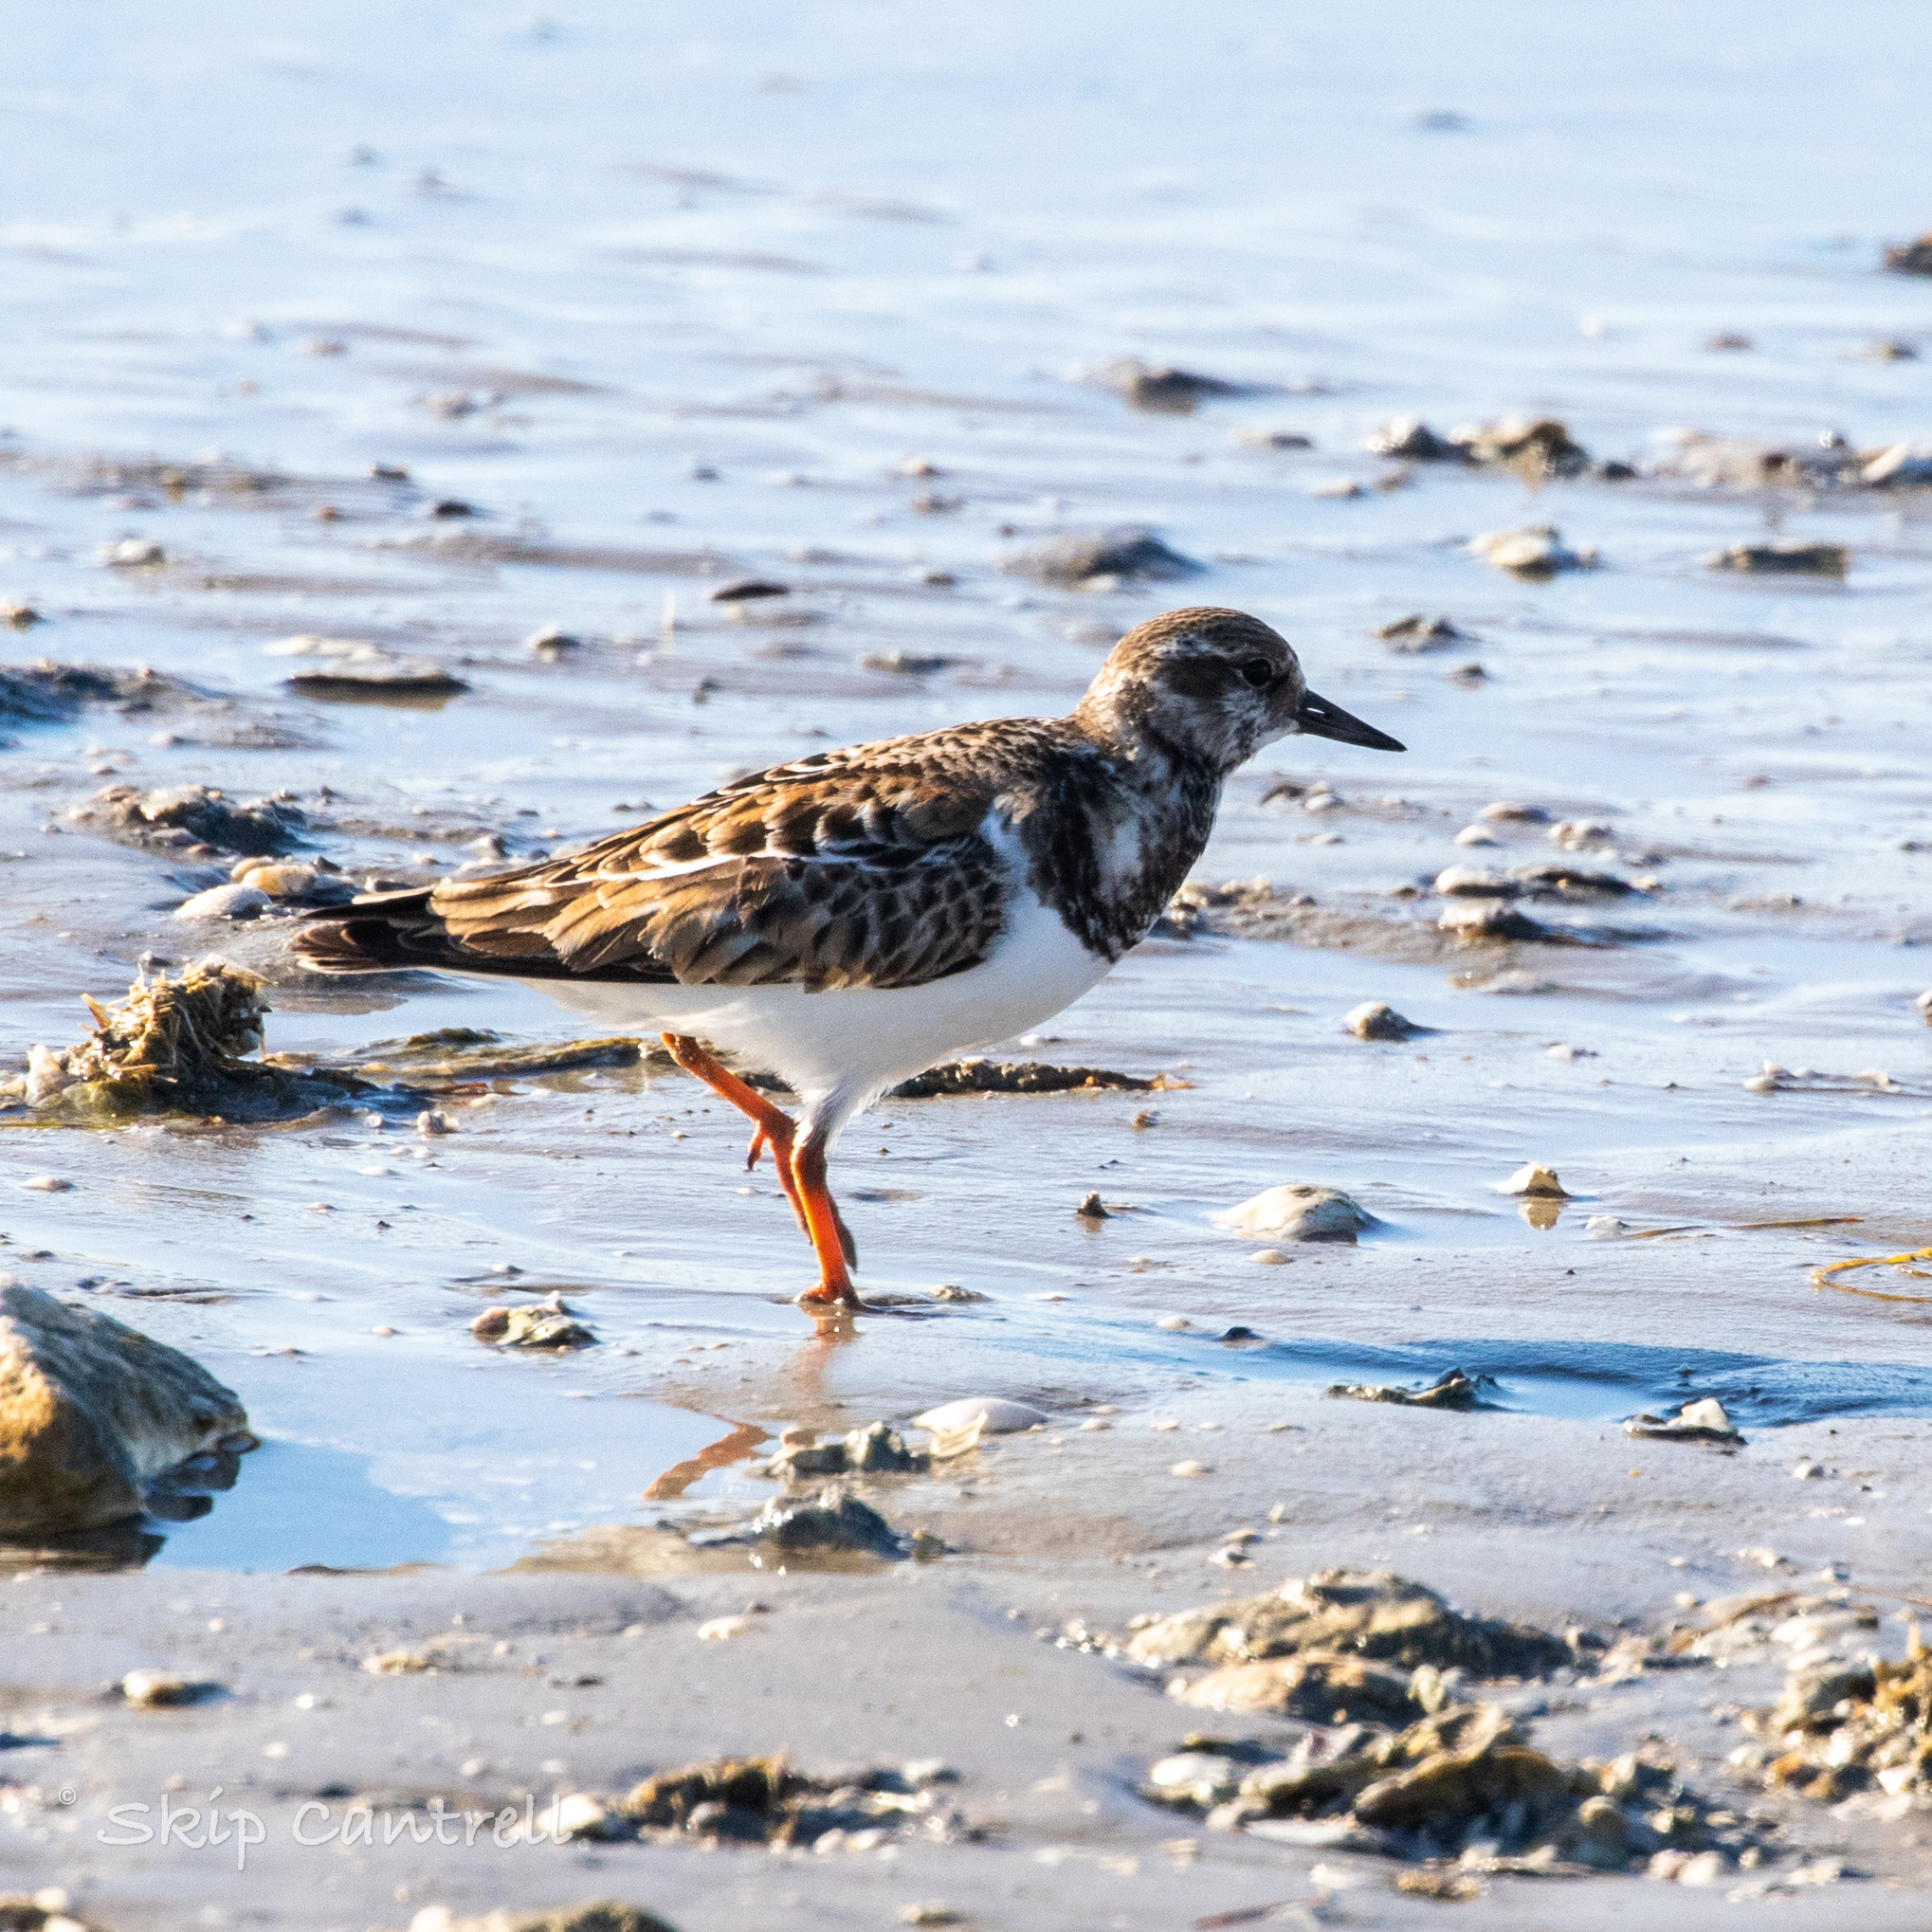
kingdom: Animalia
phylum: Chordata
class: Aves
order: Charadriiformes
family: Scolopacidae
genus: Arenaria
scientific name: Arenaria interpres
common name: Ruddy turnstone
